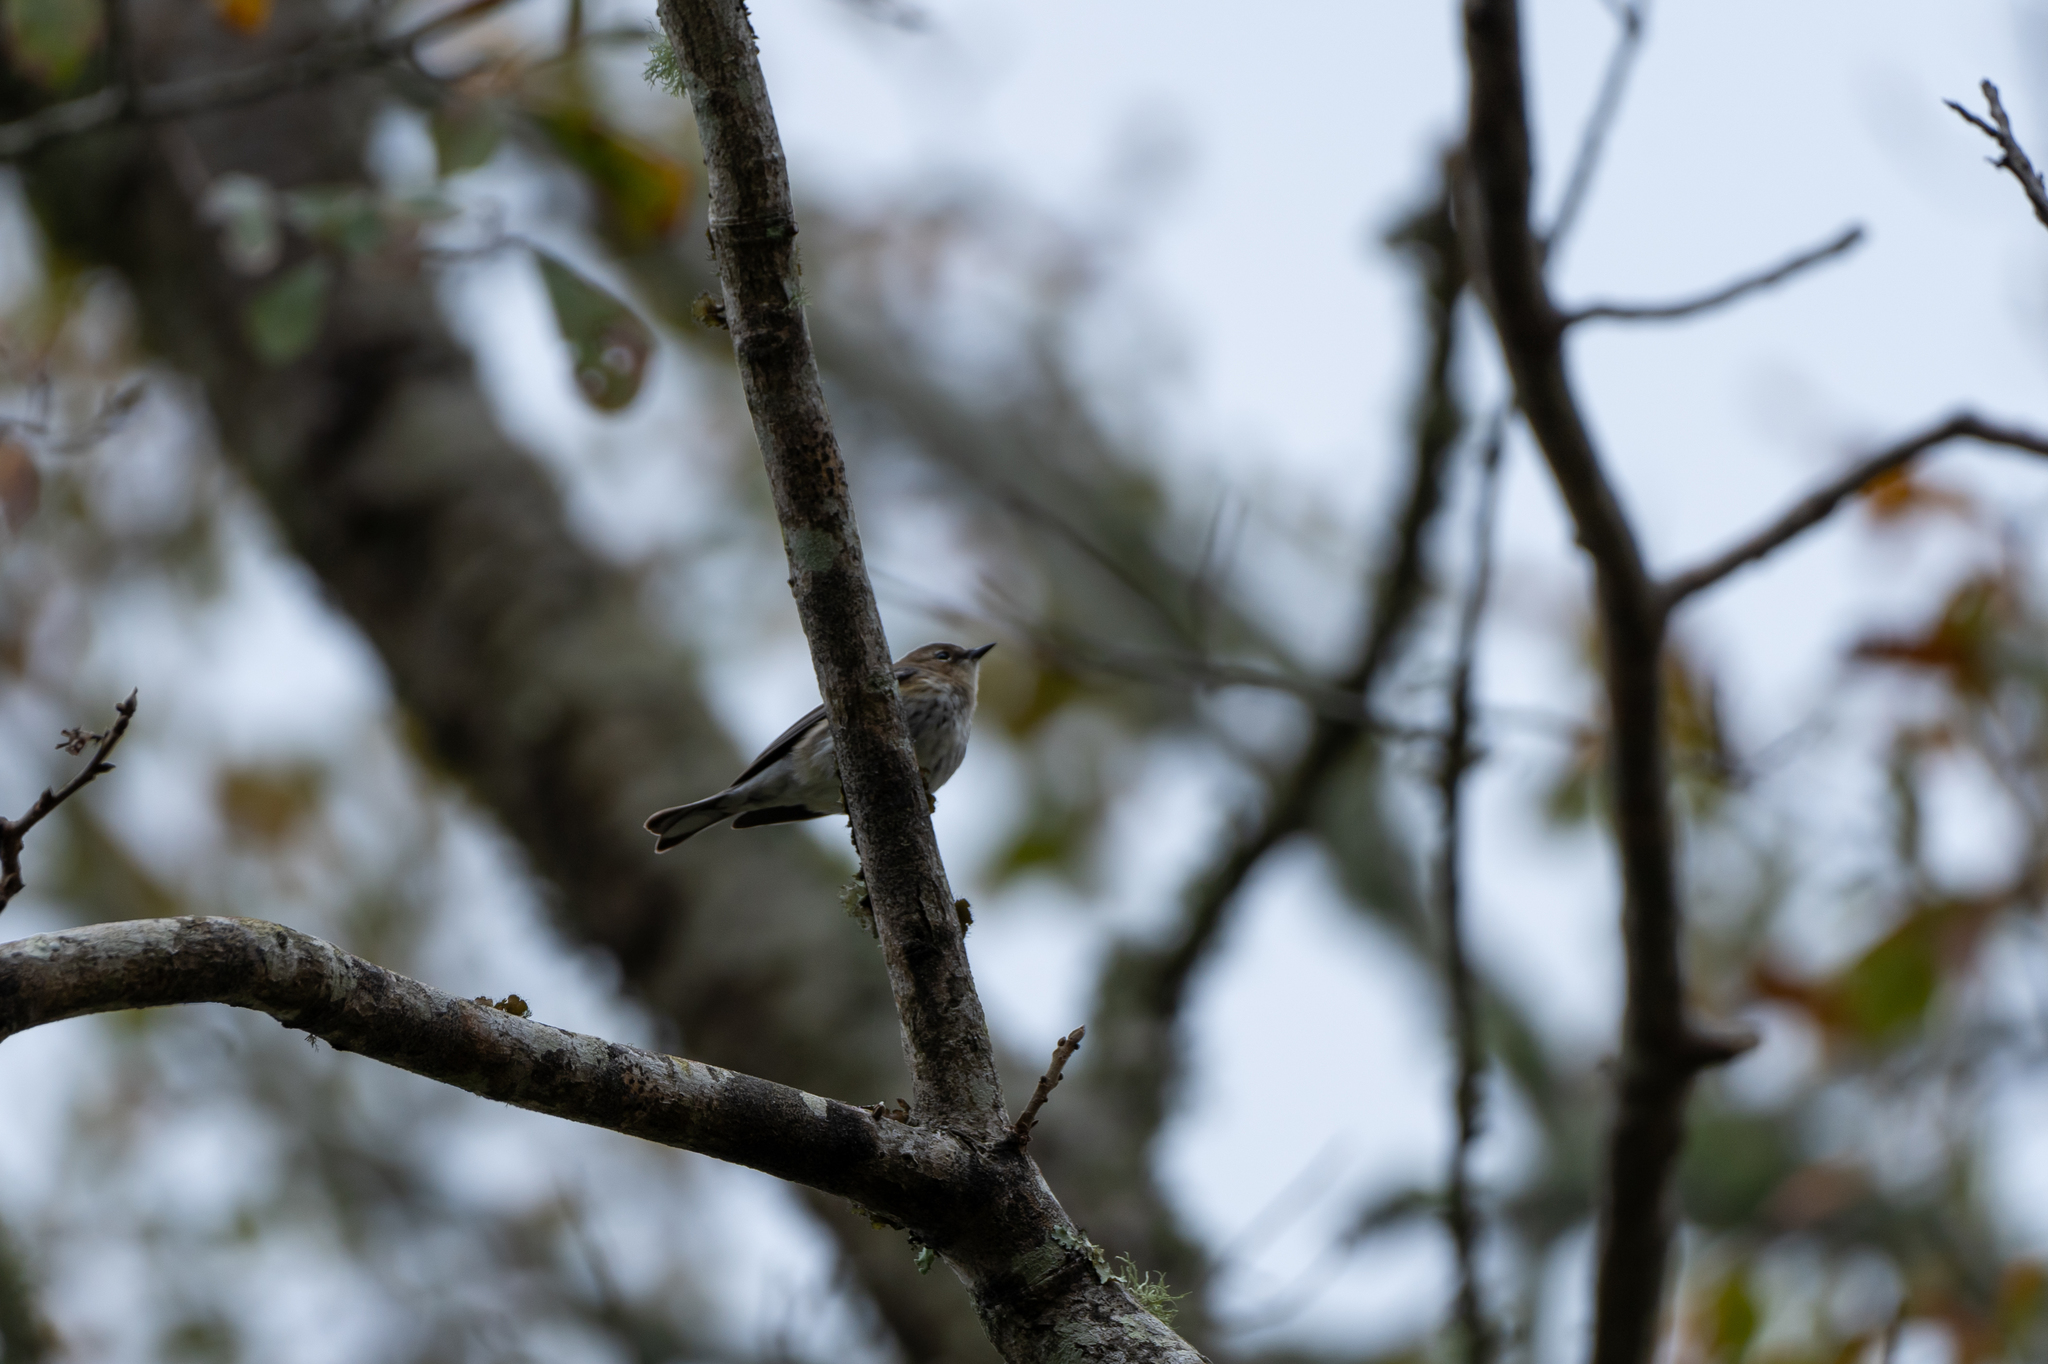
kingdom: Animalia
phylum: Chordata
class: Aves
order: Passeriformes
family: Parulidae
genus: Setophaga
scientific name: Setophaga coronata
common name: Myrtle warbler
